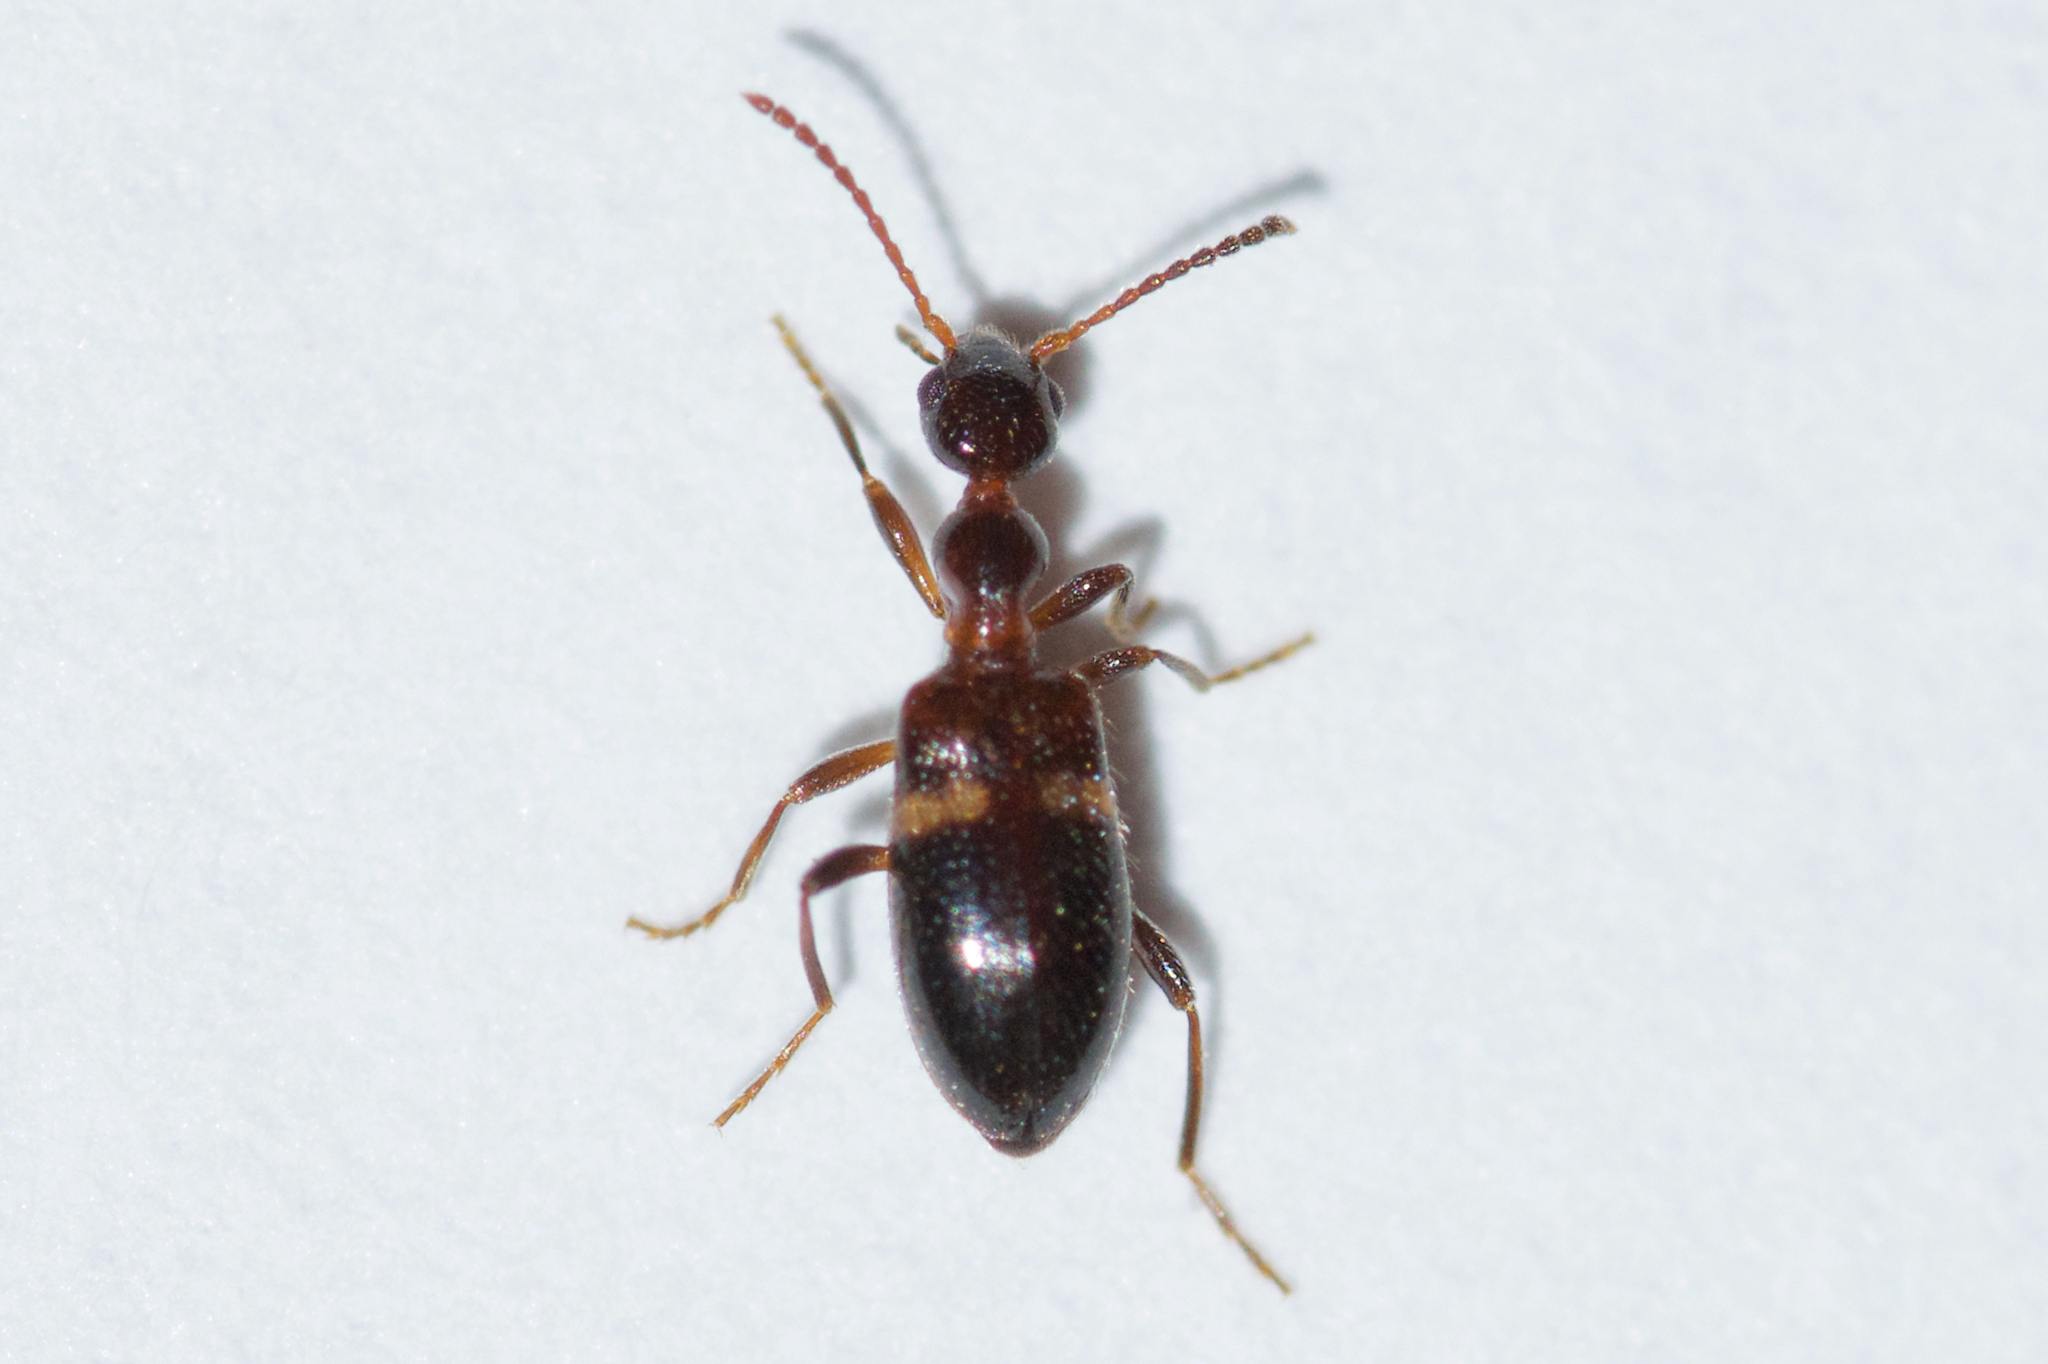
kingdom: Animalia
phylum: Arthropoda
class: Insecta
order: Coleoptera
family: Anthicidae
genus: Malporus
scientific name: Malporus formicarius
